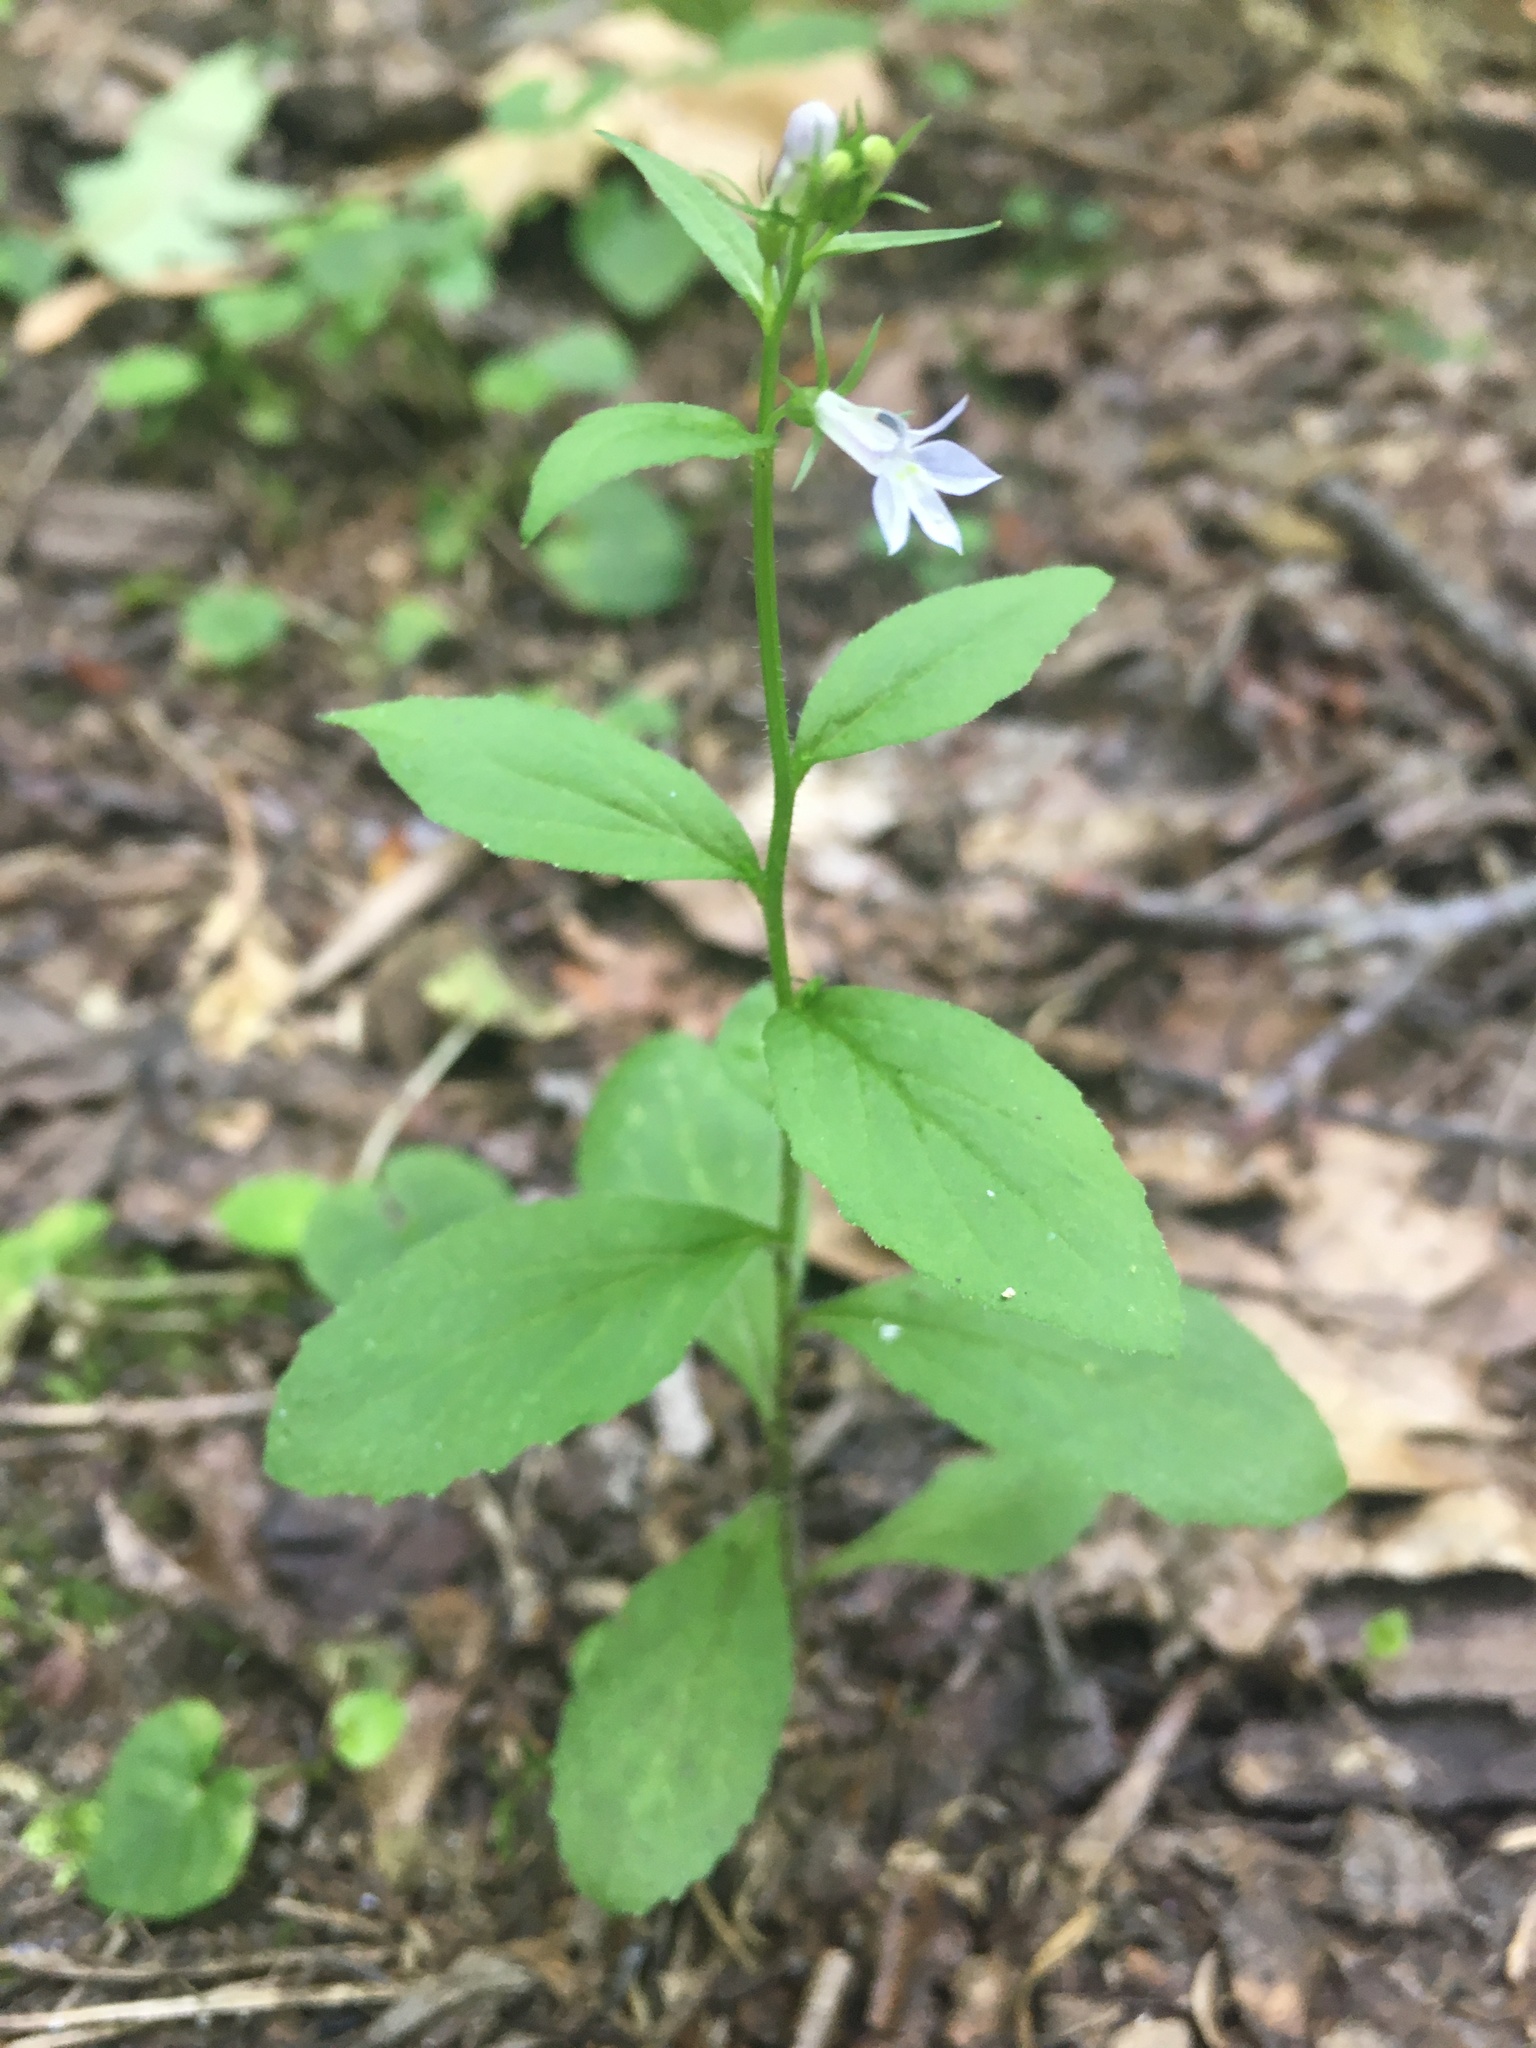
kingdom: Plantae
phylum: Tracheophyta
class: Magnoliopsida
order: Asterales
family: Campanulaceae
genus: Lobelia
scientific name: Lobelia inflata
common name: Indian tobacco
